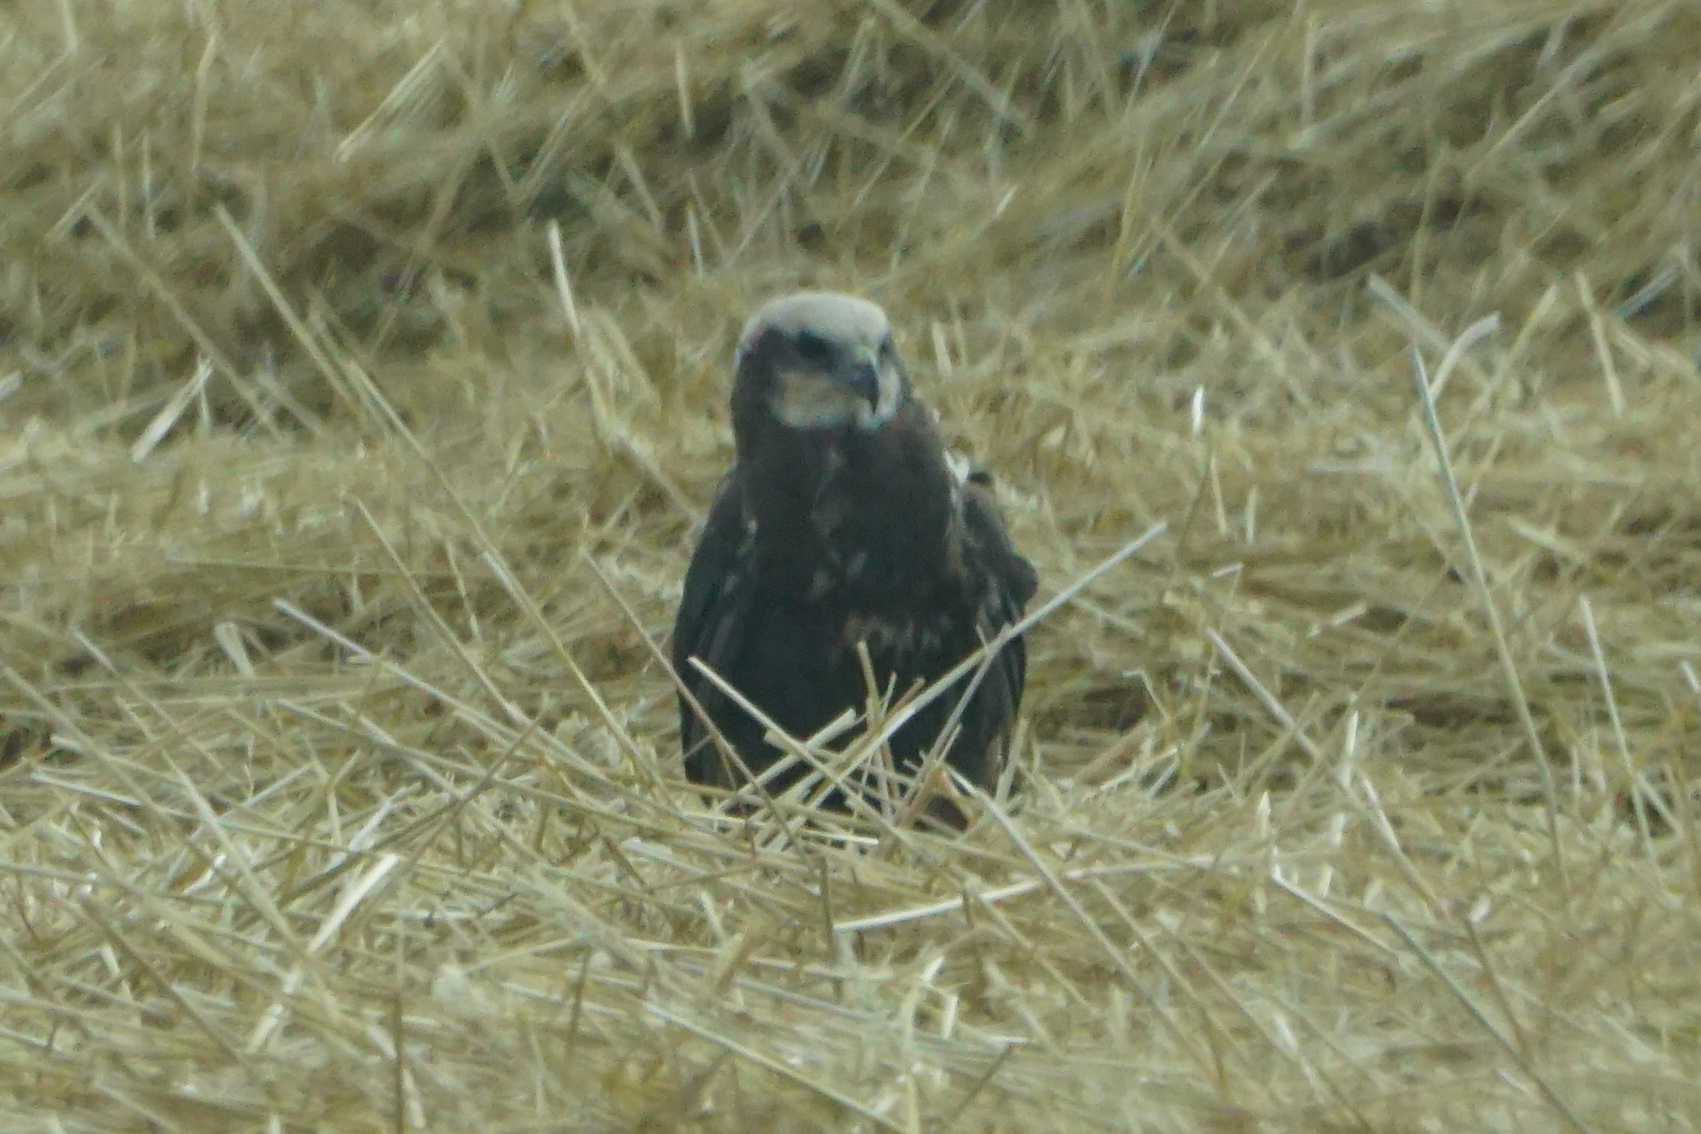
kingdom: Animalia
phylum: Chordata
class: Aves
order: Accipitriformes
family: Accipitridae
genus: Circus
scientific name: Circus aeruginosus
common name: Western marsh harrier
